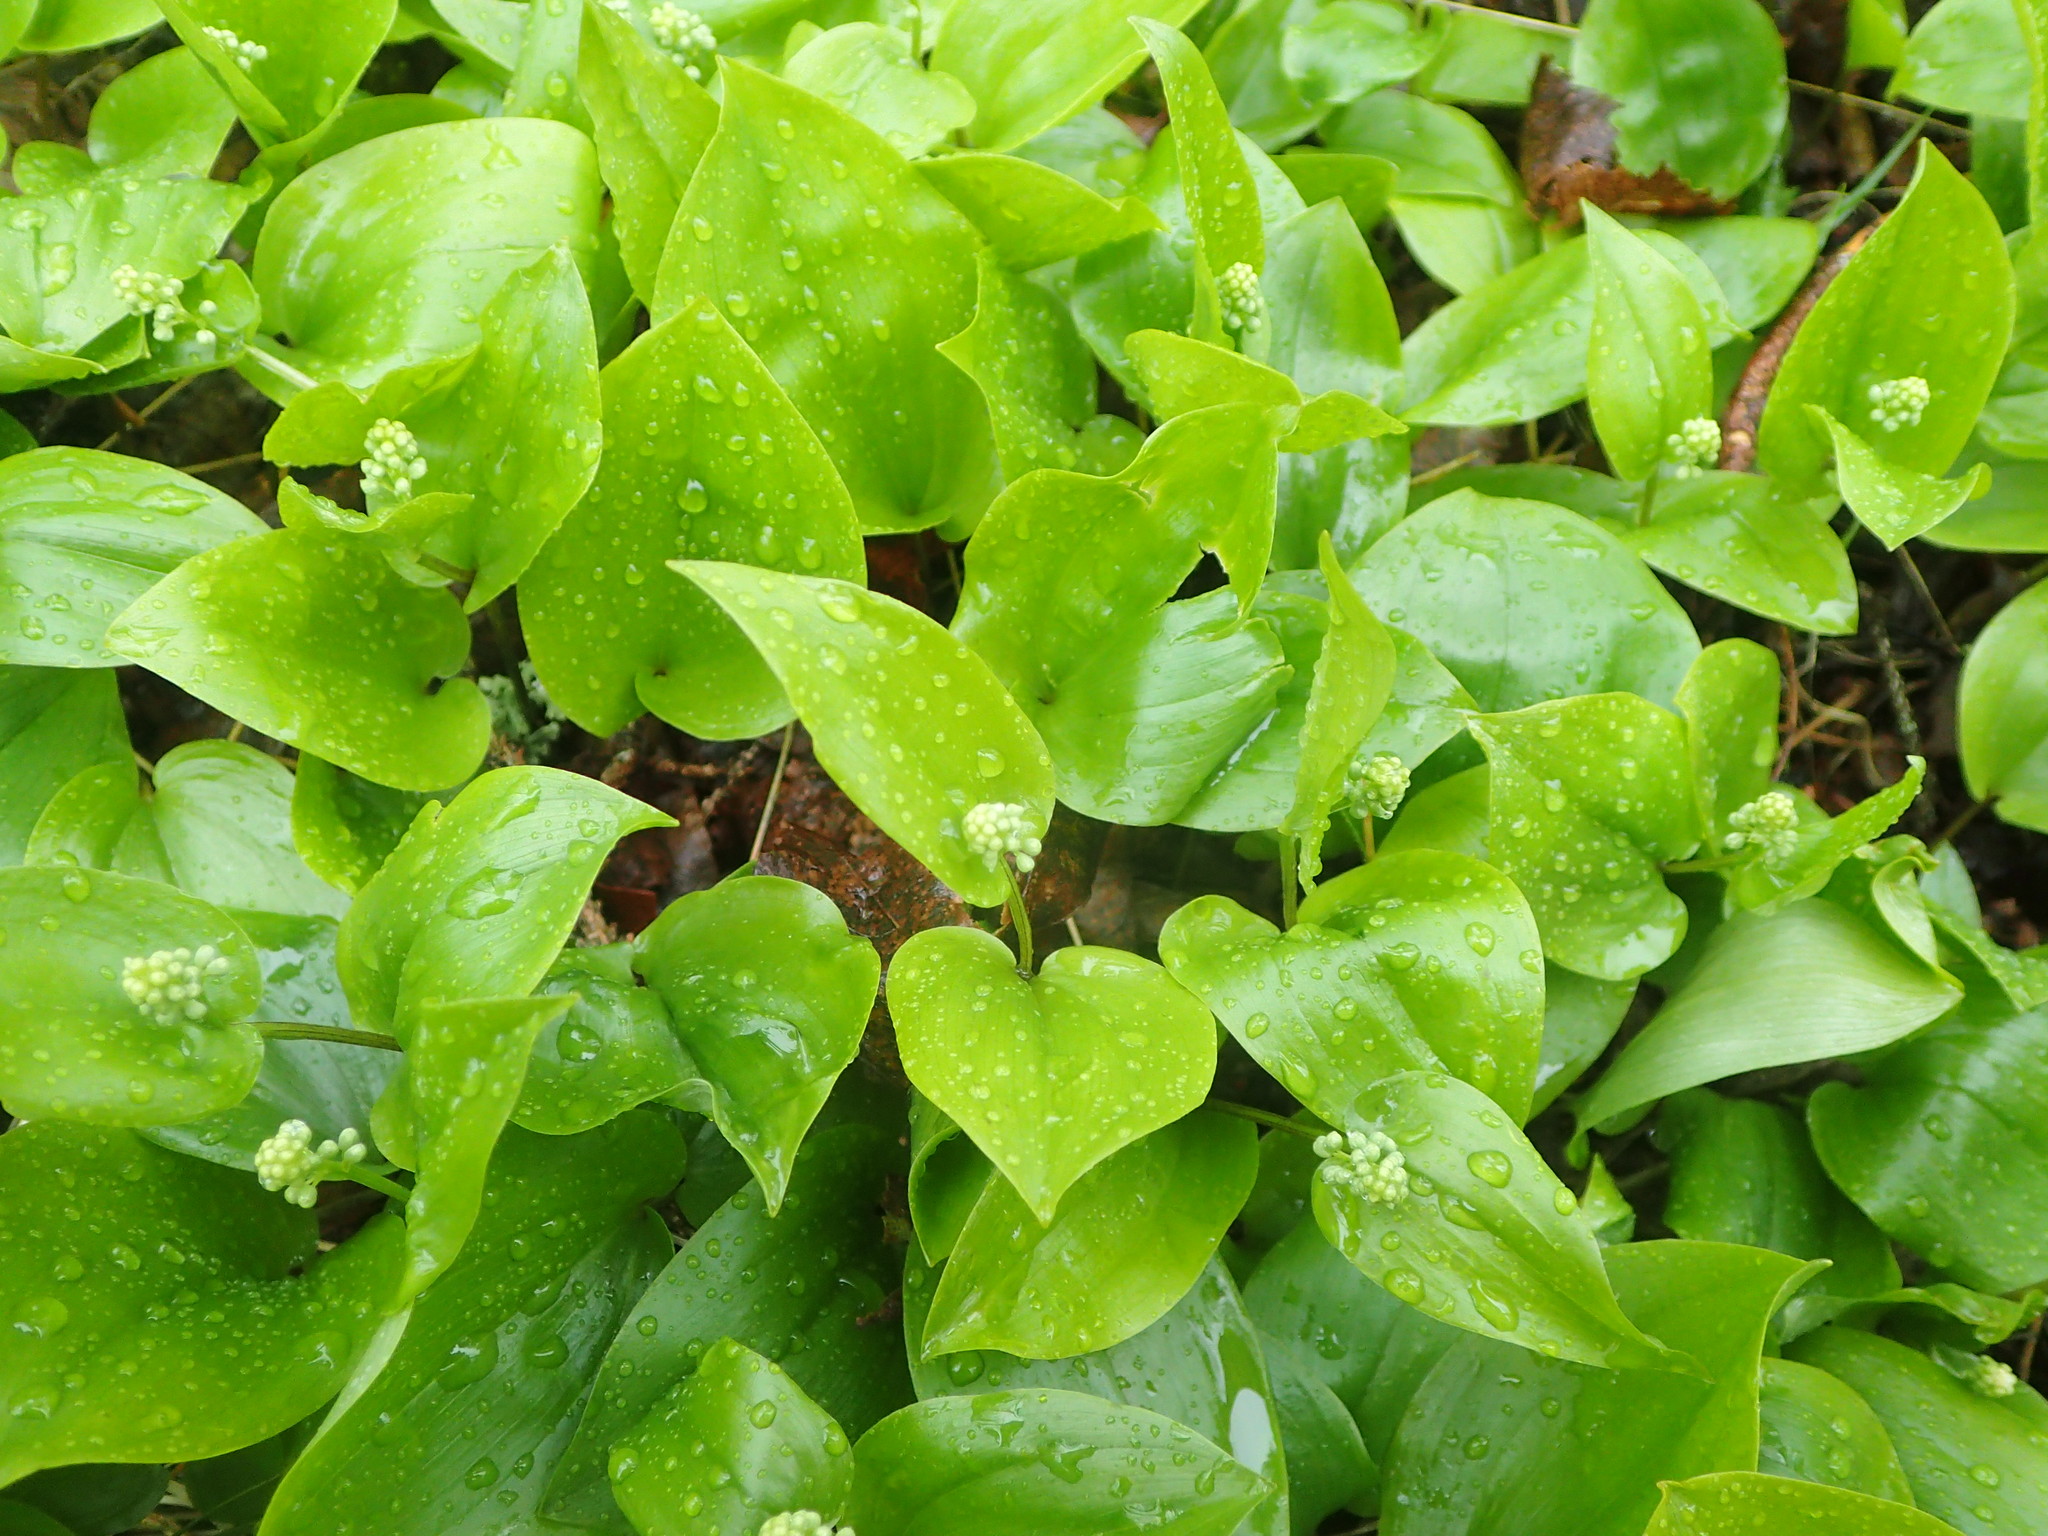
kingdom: Plantae
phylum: Tracheophyta
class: Liliopsida
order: Asparagales
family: Asparagaceae
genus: Maianthemum
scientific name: Maianthemum canadense
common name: False lily-of-the-valley
